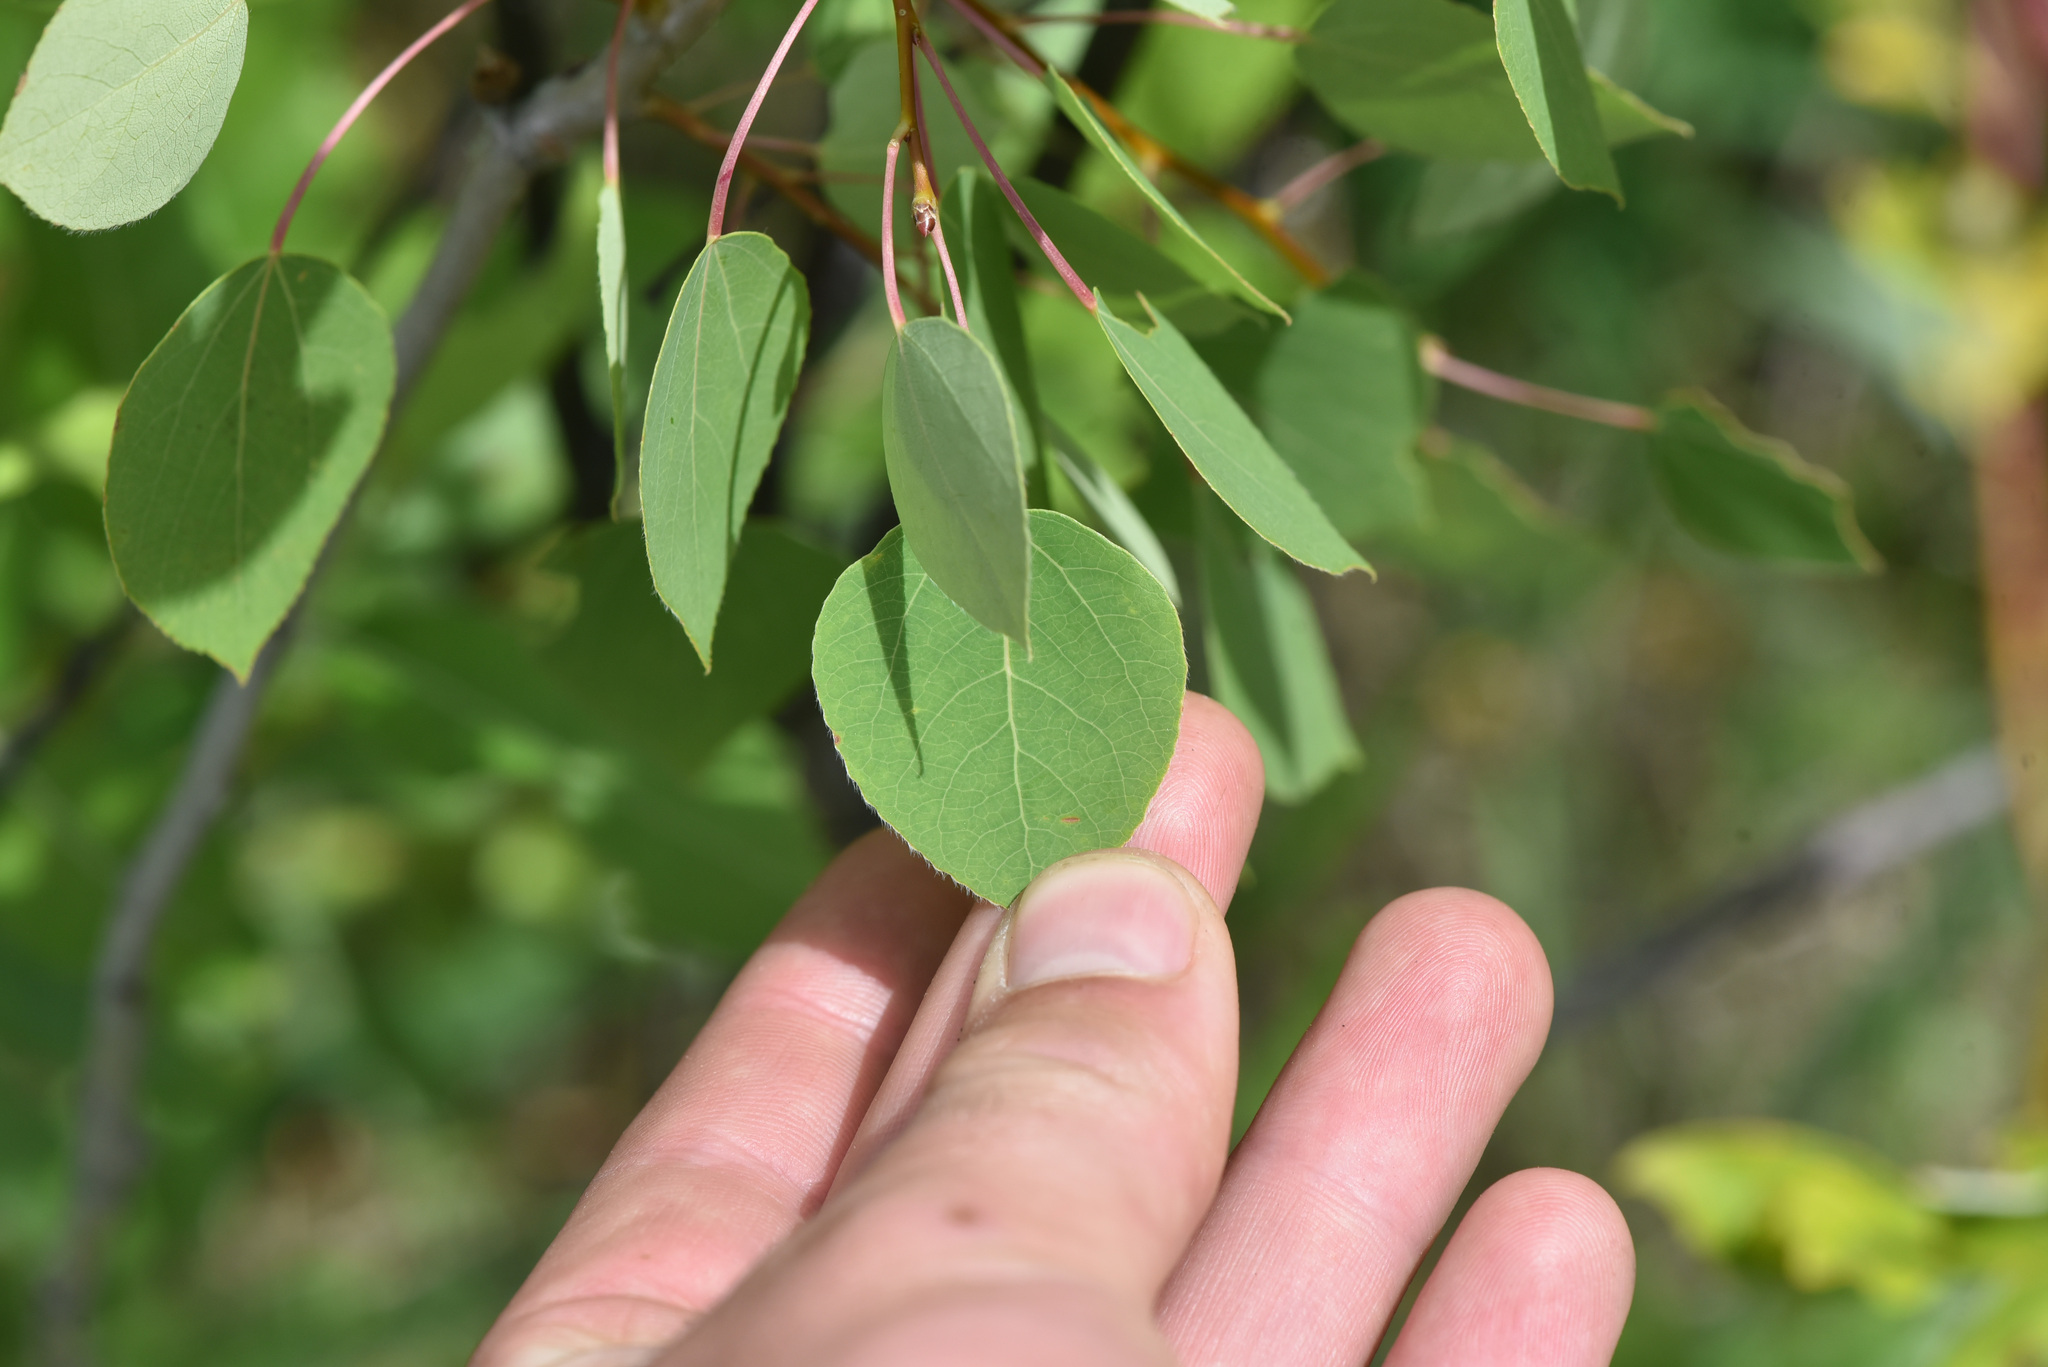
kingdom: Plantae
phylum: Tracheophyta
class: Magnoliopsida
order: Malpighiales
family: Salicaceae
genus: Populus
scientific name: Populus tremuloides
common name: Quaking aspen
